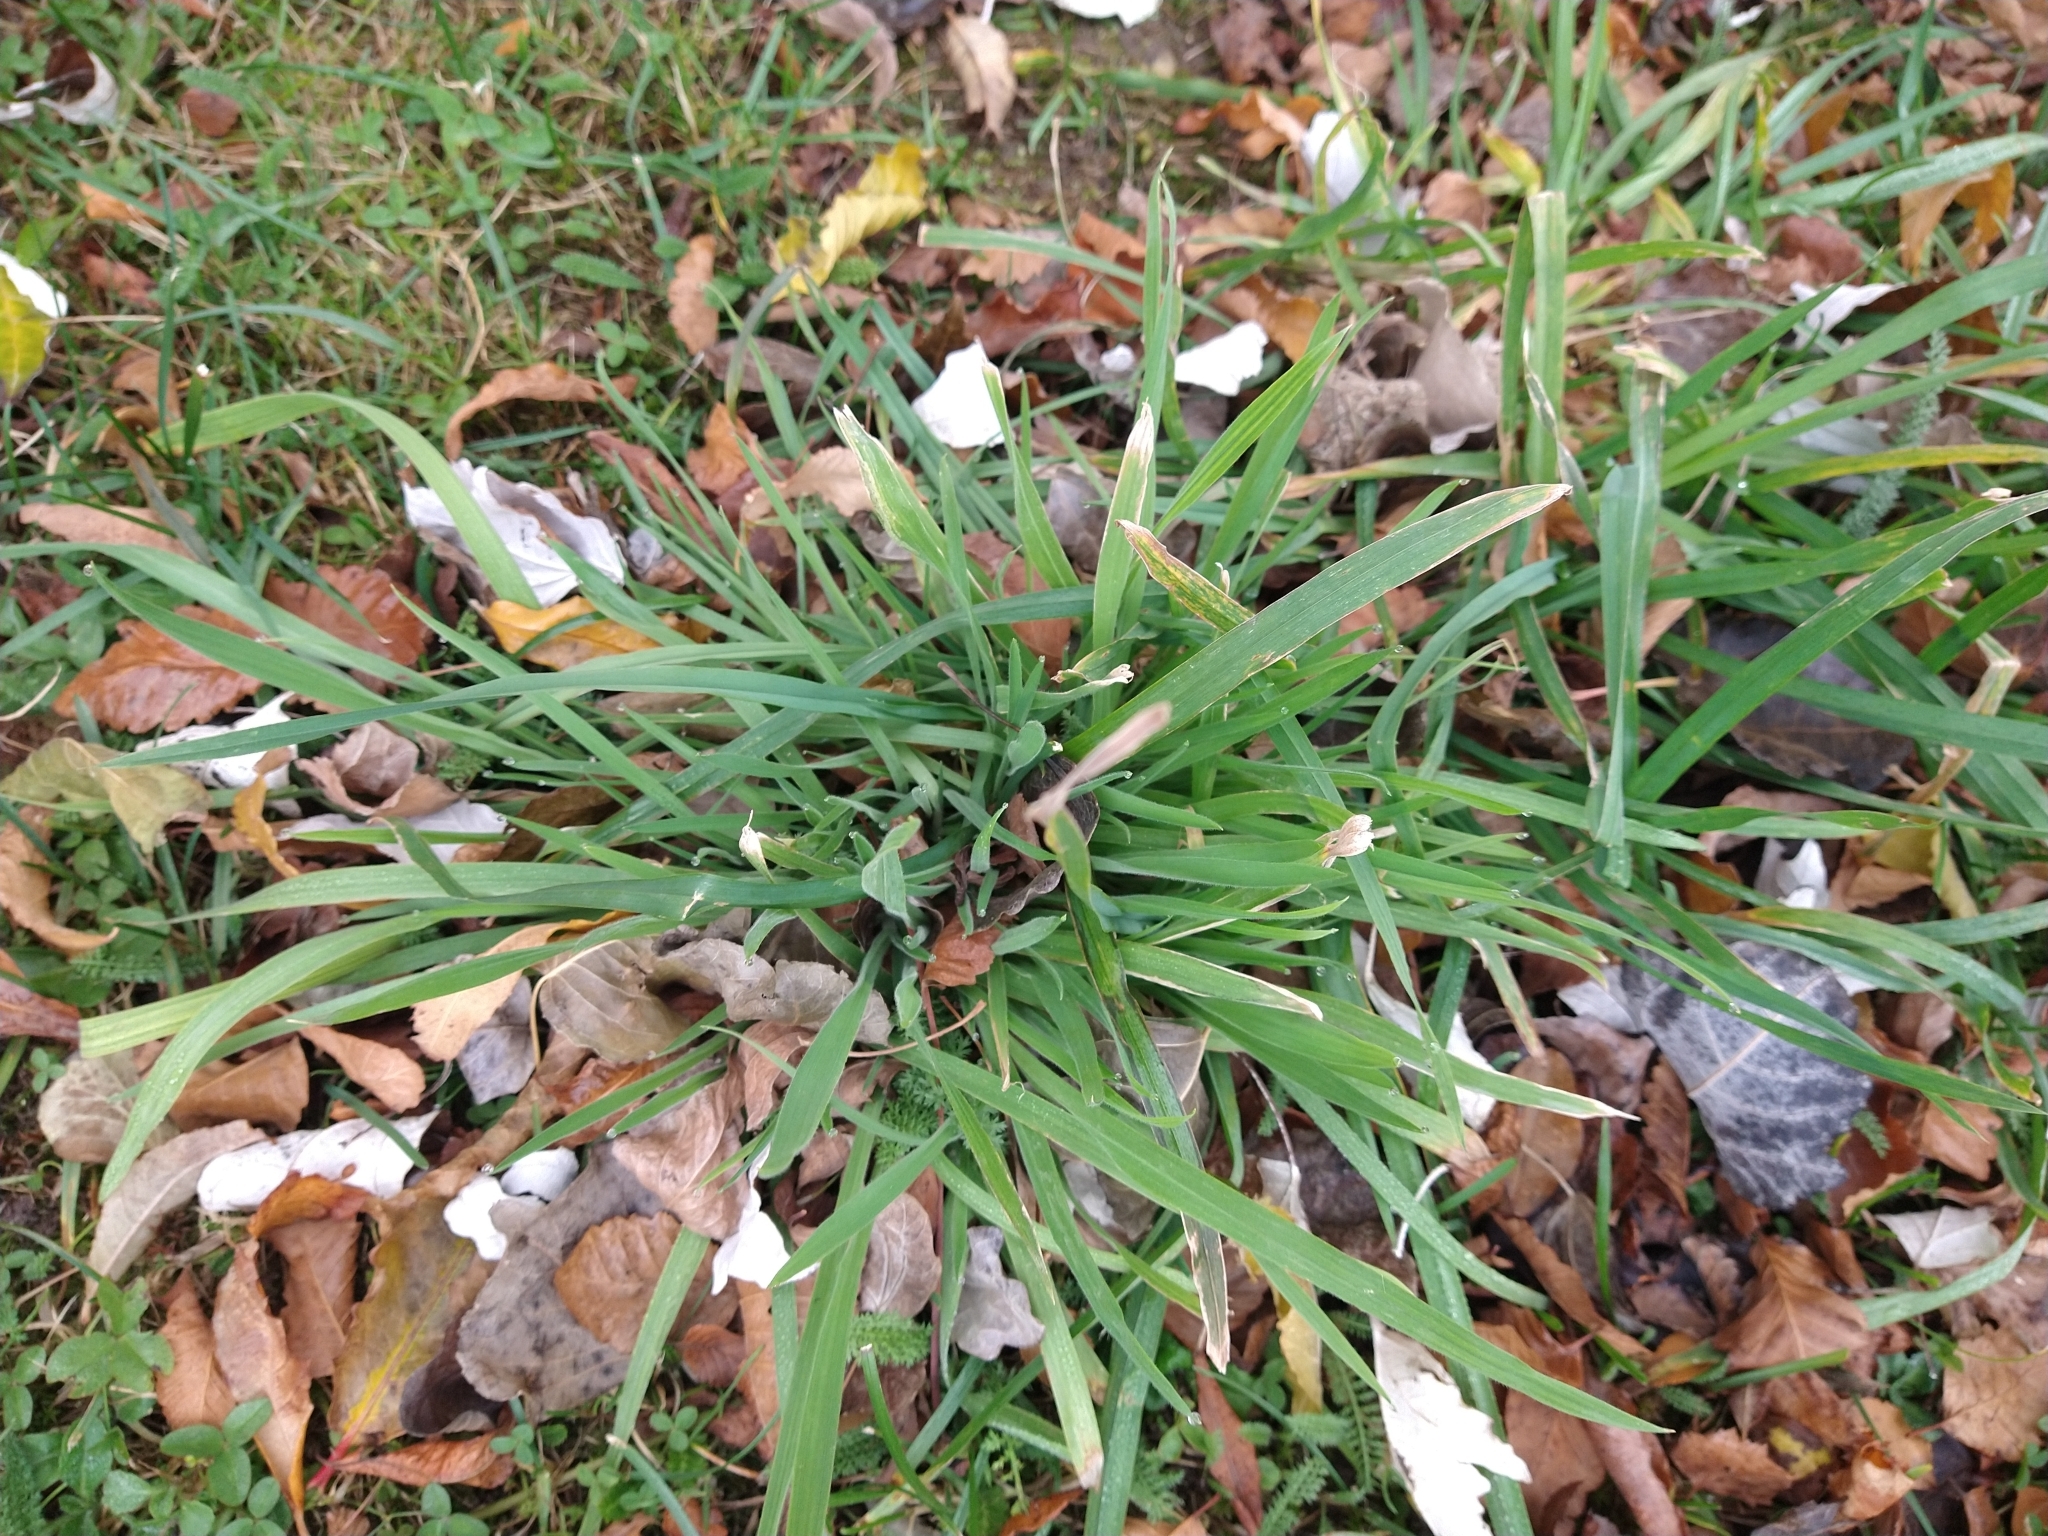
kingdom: Plantae
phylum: Tracheophyta
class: Liliopsida
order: Poales
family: Poaceae
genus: Holcus
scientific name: Holcus lanatus
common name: Yorkshire-fog
